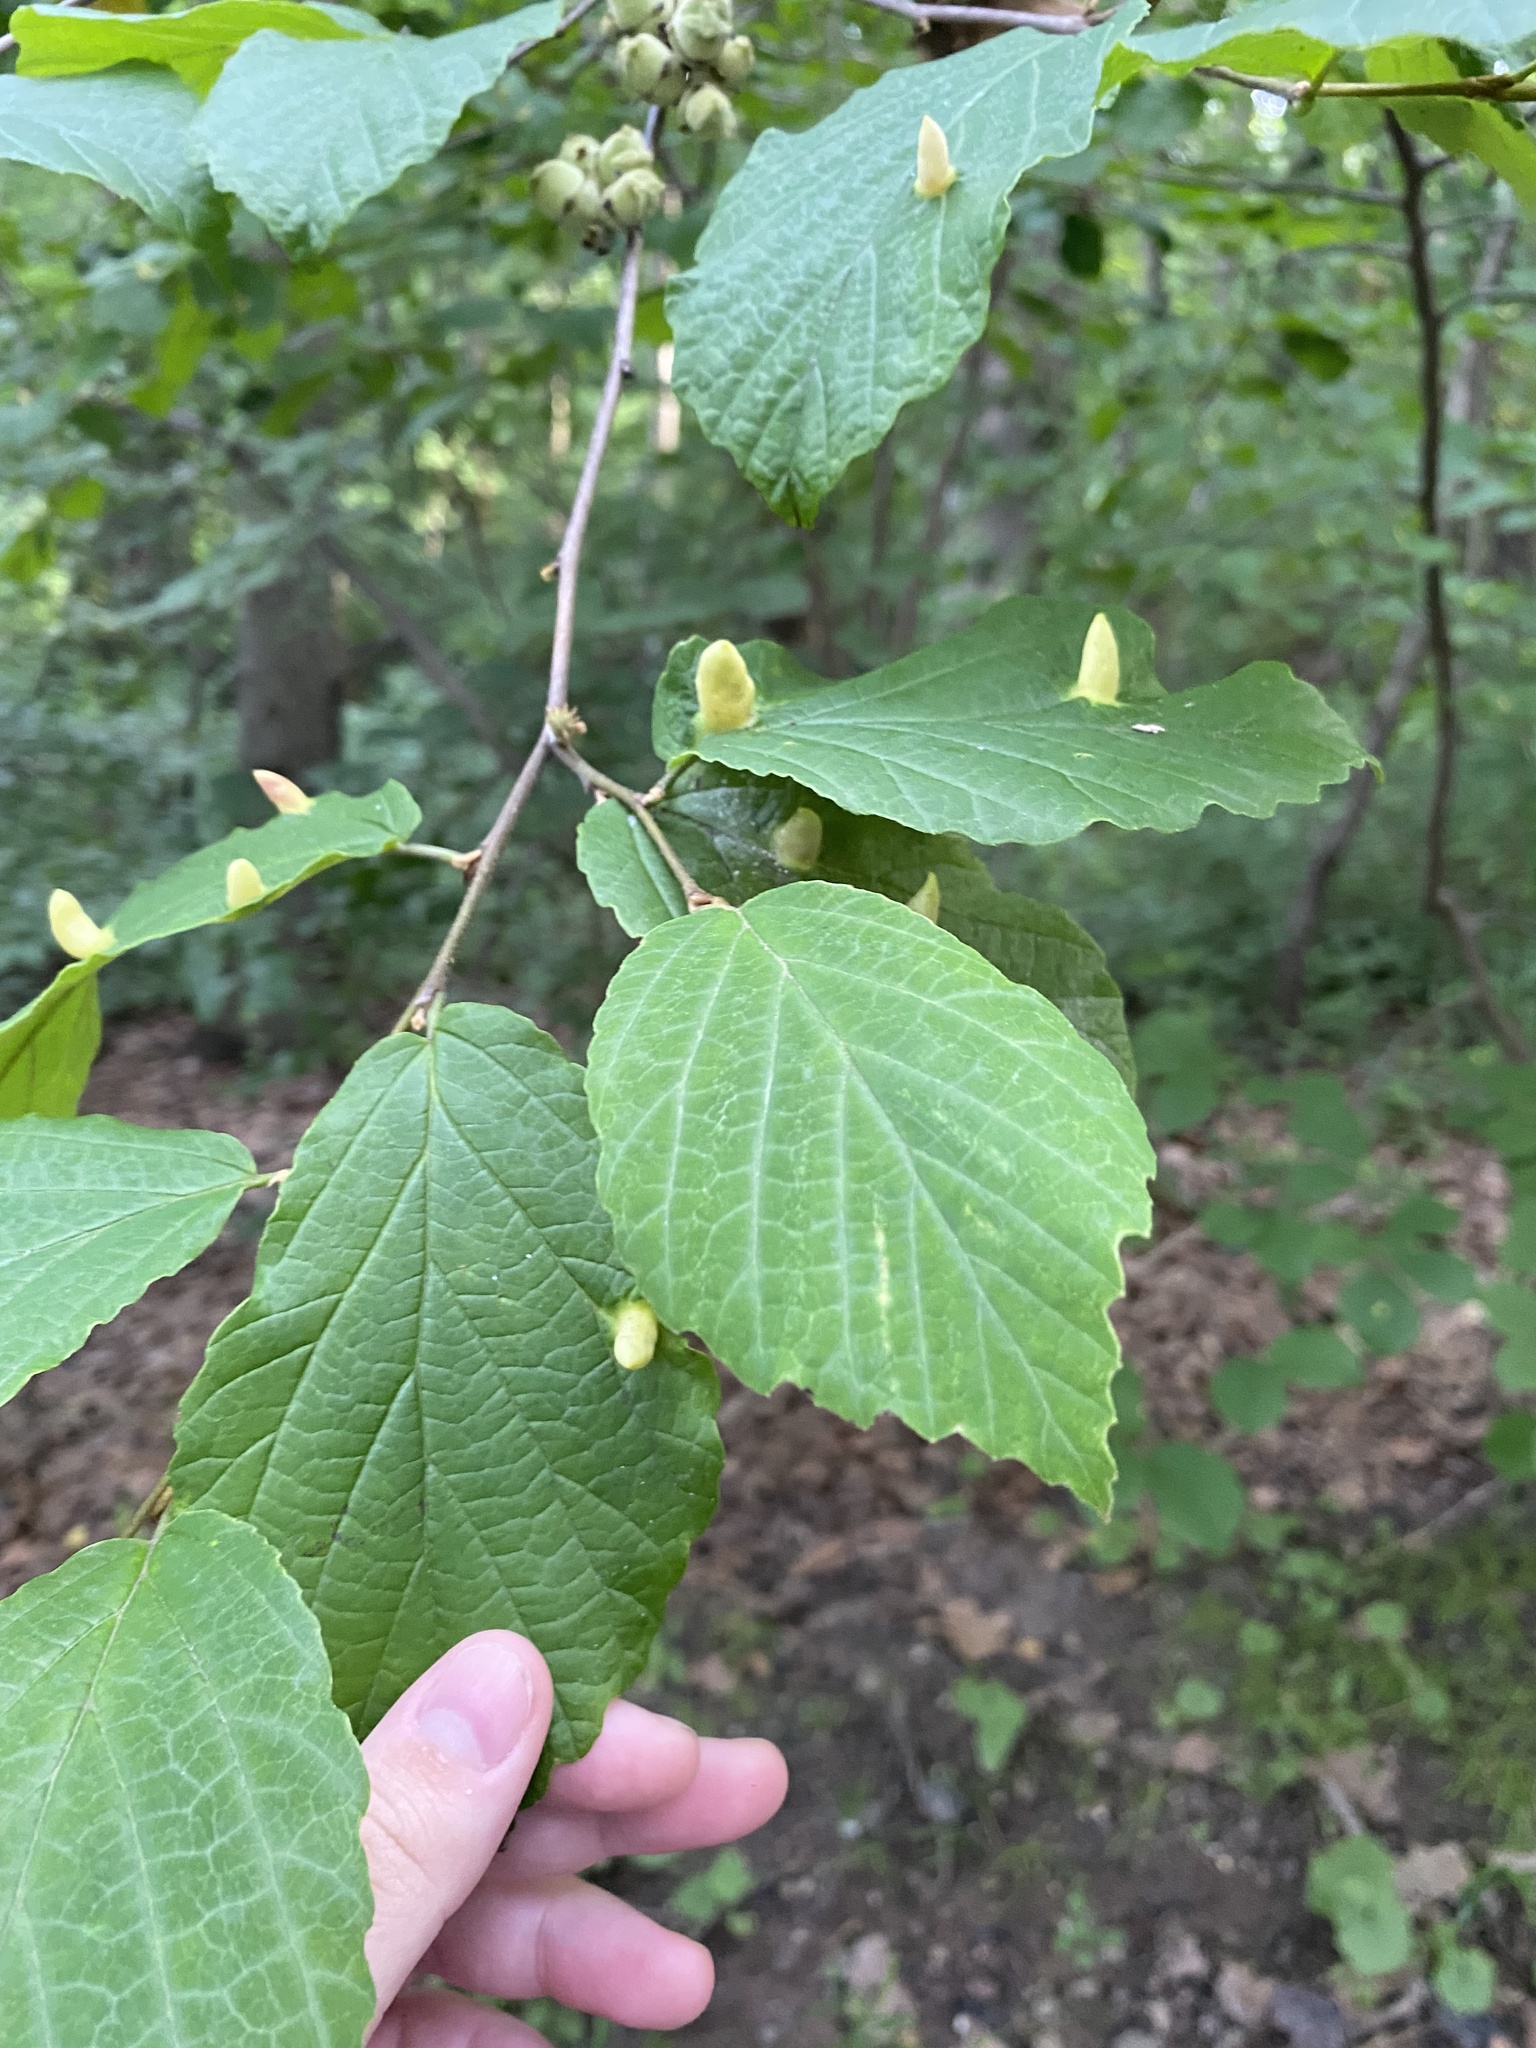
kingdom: Animalia
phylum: Arthropoda
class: Insecta
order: Hemiptera
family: Aphididae
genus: Hormaphis
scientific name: Hormaphis hamamelidis
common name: Witch-hazel cone gall aphid
